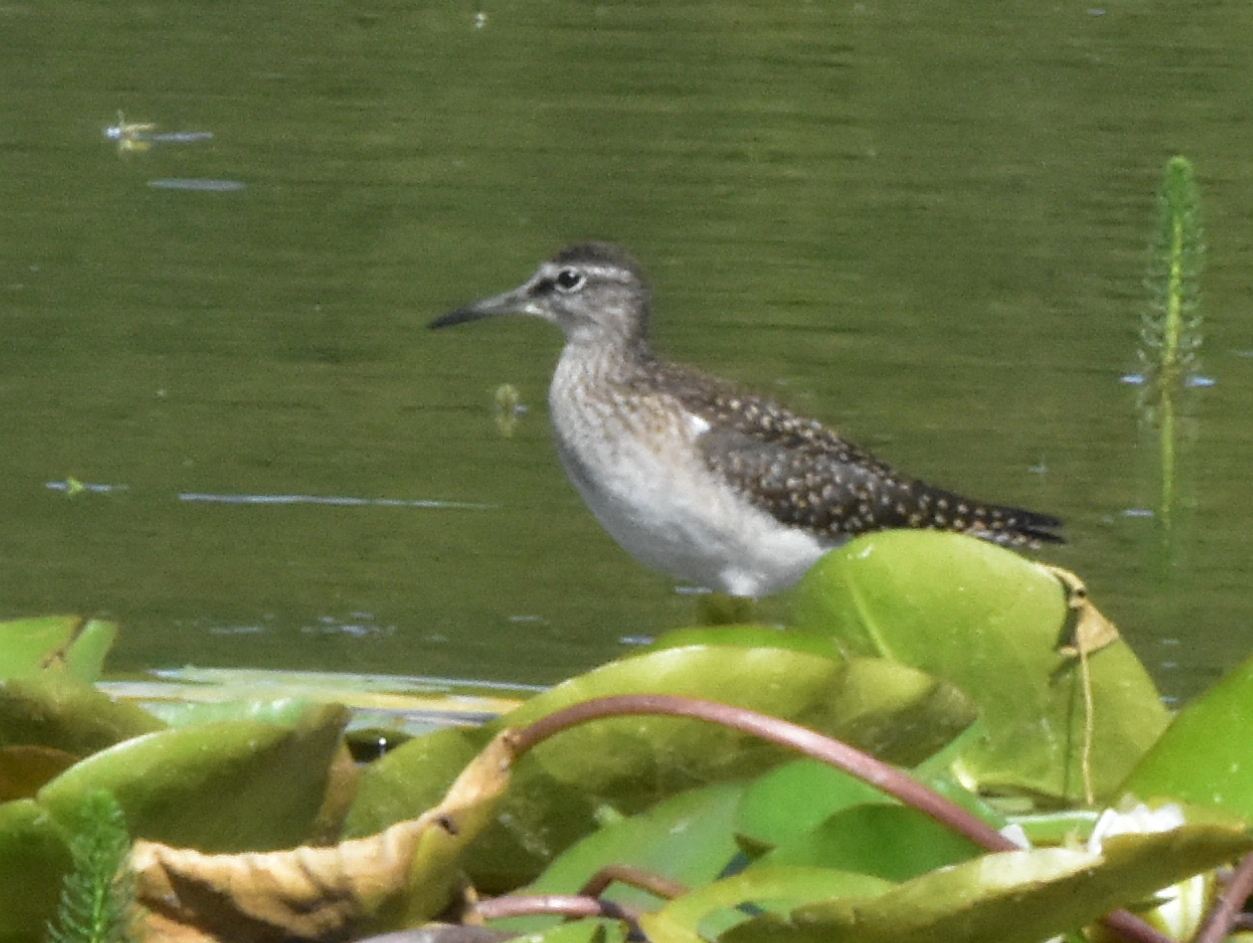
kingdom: Animalia
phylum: Chordata
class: Aves
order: Charadriiformes
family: Scolopacidae
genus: Tringa
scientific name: Tringa glareola
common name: Wood sandpiper
